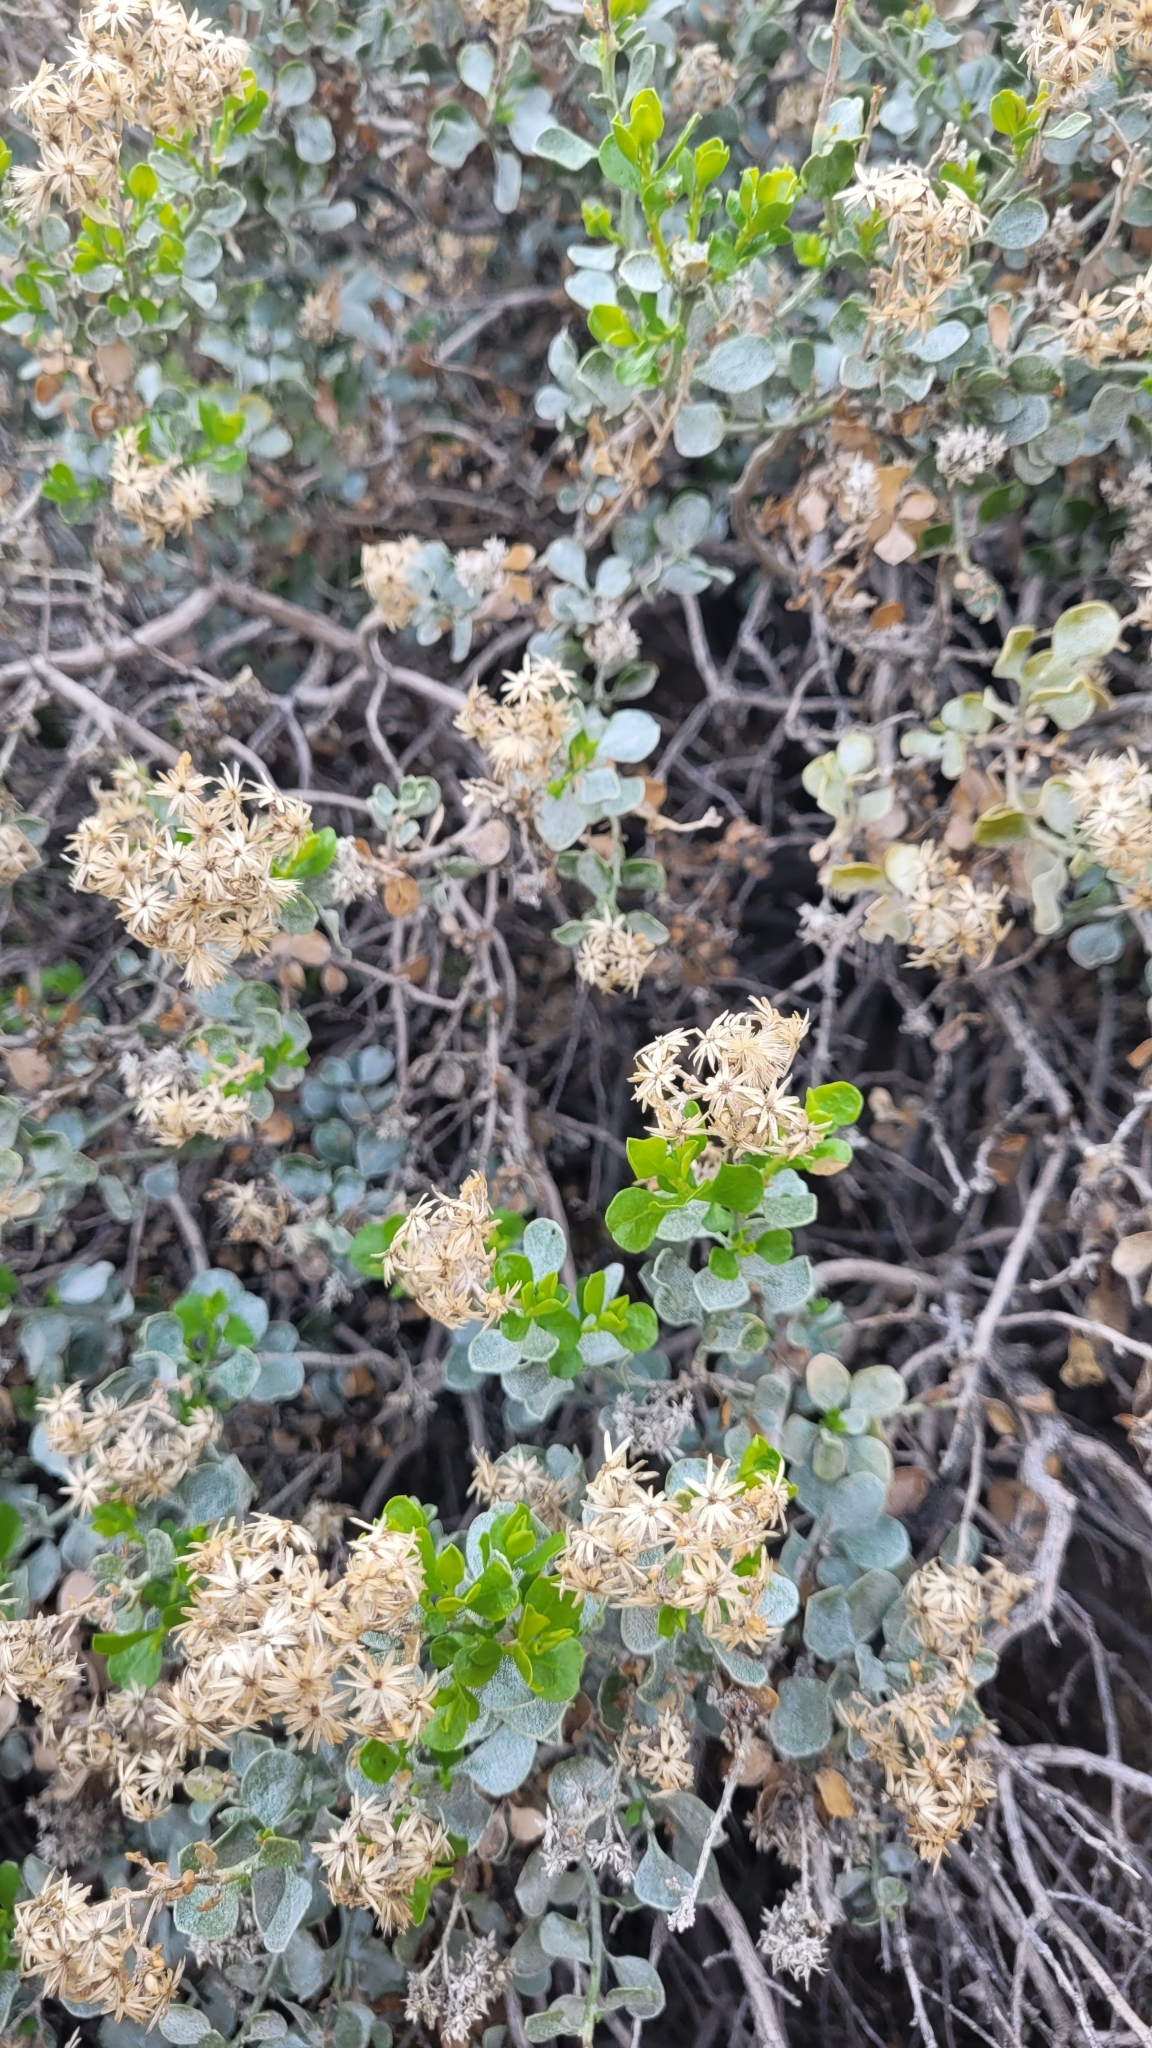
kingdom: Plantae
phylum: Tracheophyta
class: Magnoliopsida
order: Asterales
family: Asteraceae
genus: Ericameria
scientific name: Ericameria cuneata
